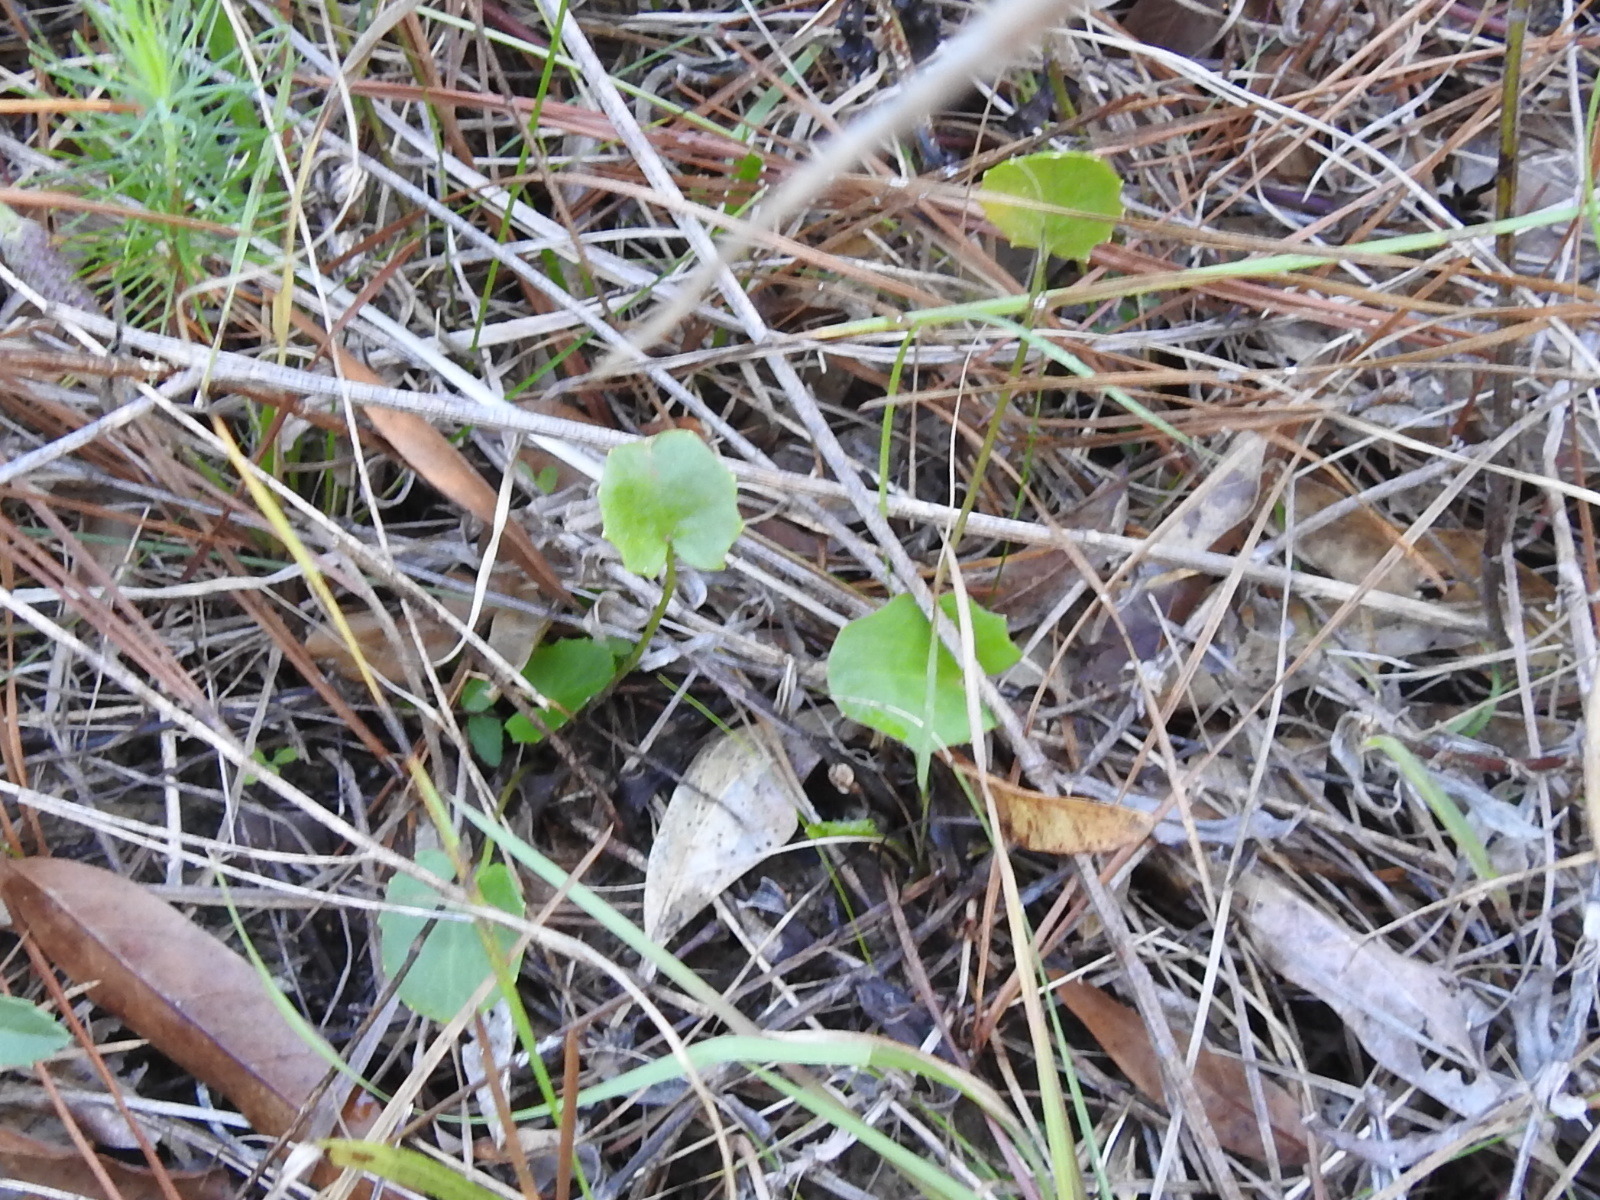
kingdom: Plantae
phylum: Tracheophyta
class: Magnoliopsida
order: Apiales
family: Apiaceae
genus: Centella
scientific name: Centella erecta
